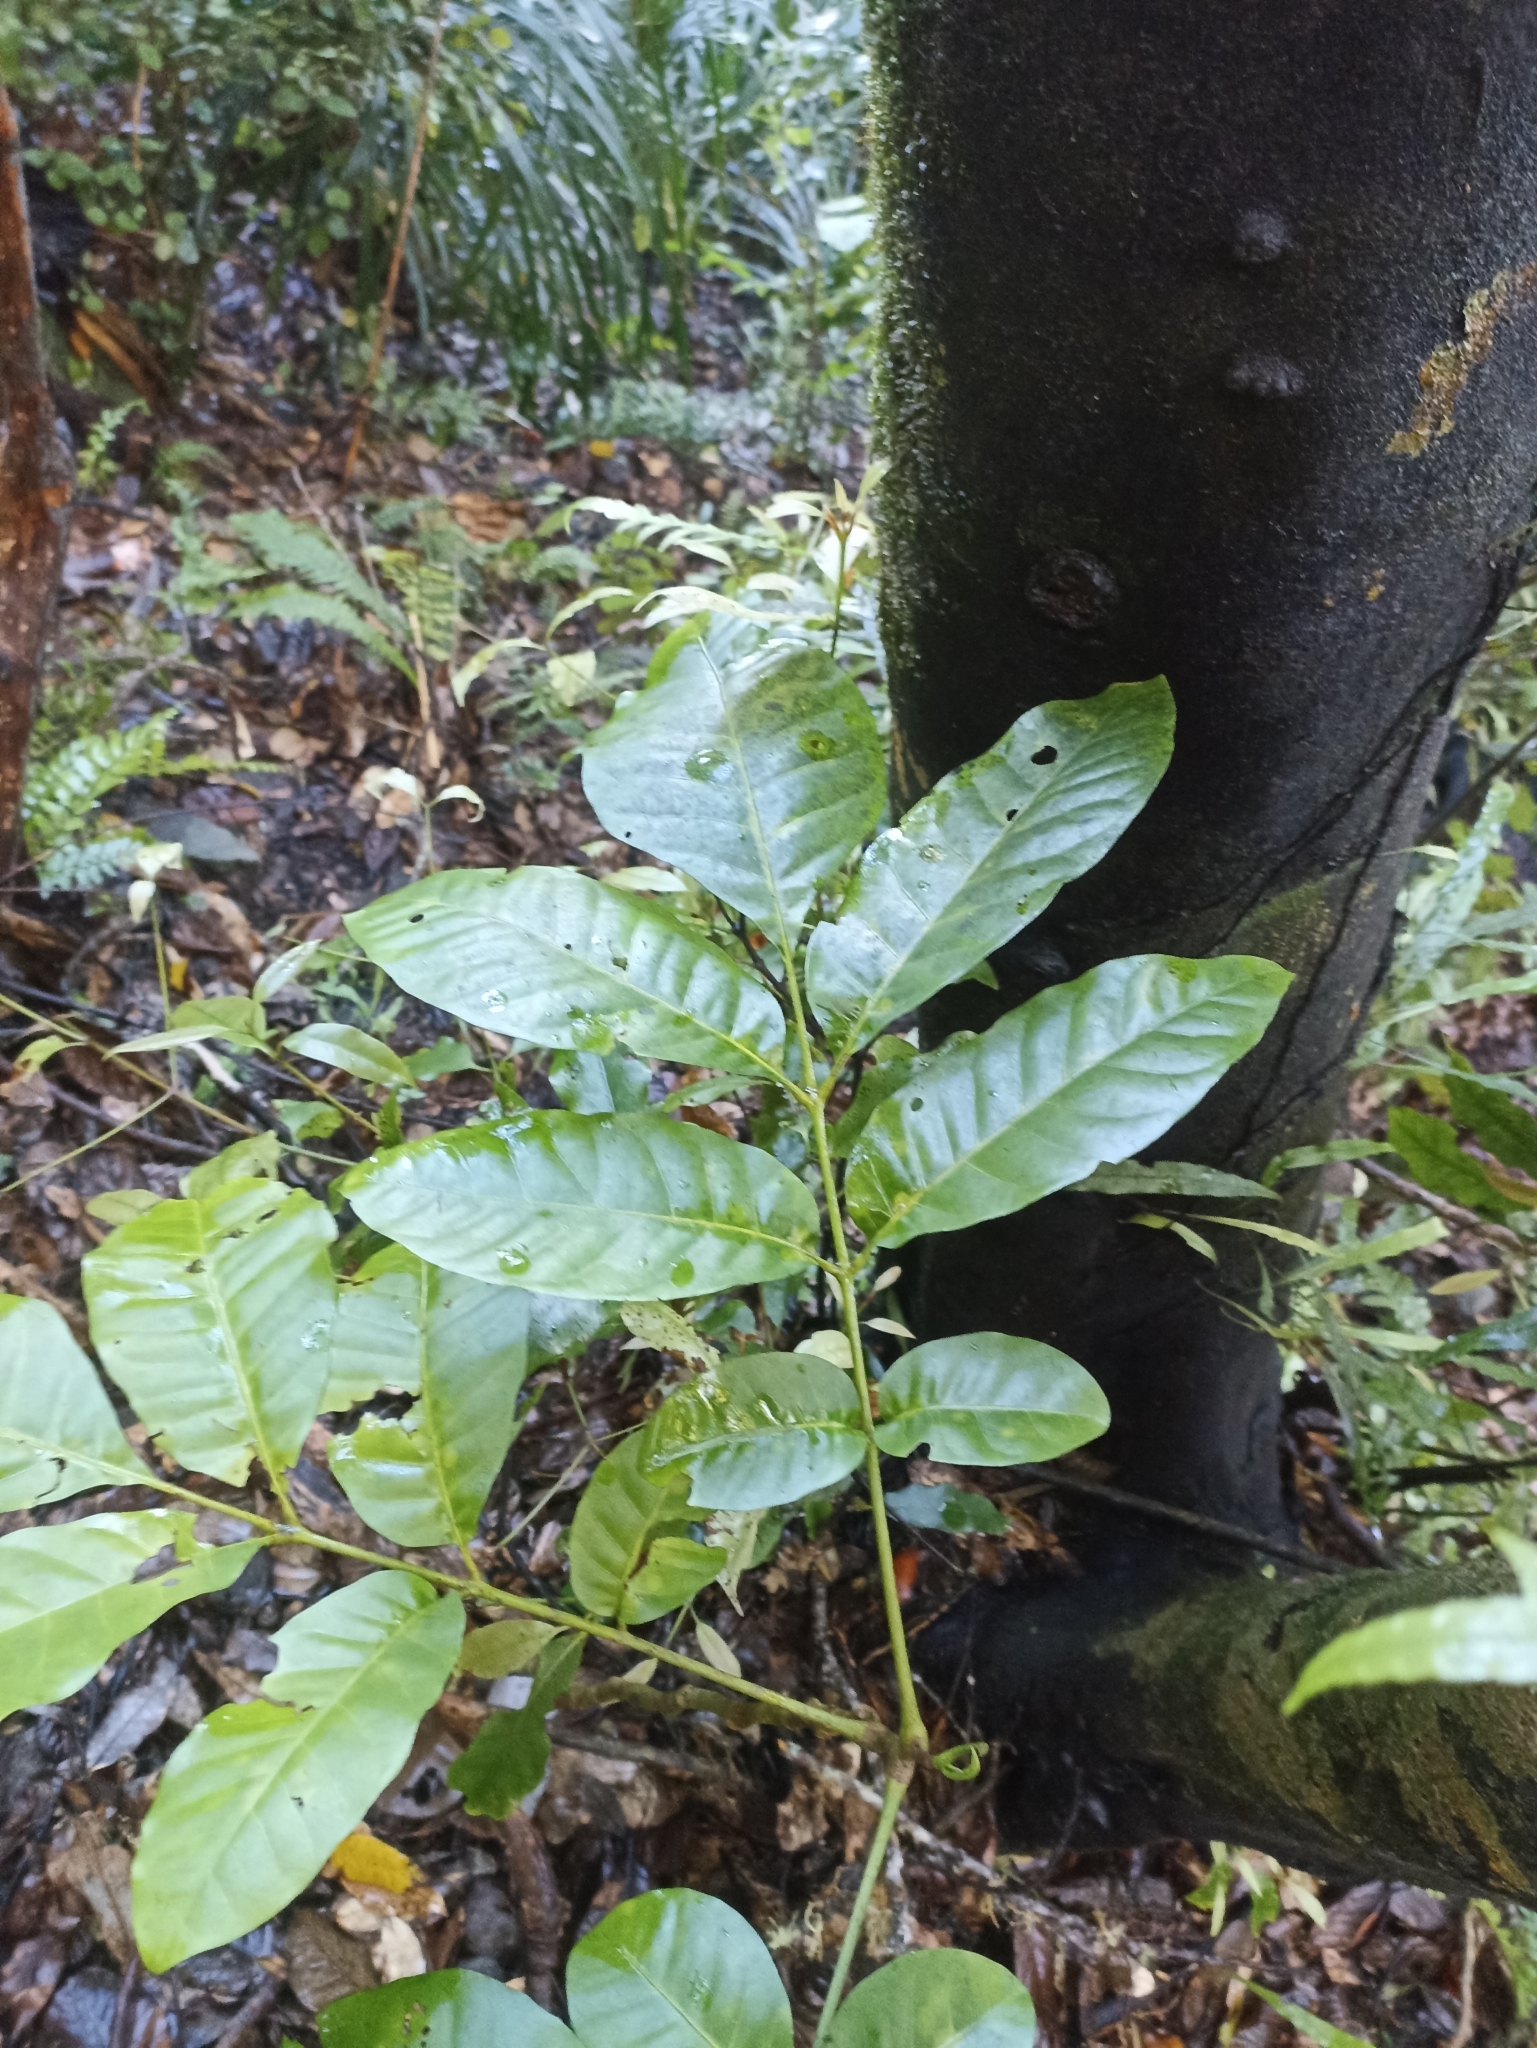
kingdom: Plantae
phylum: Tracheophyta
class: Magnoliopsida
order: Sapindales
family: Meliaceae
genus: Didymocheton
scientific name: Didymocheton spectabilis
